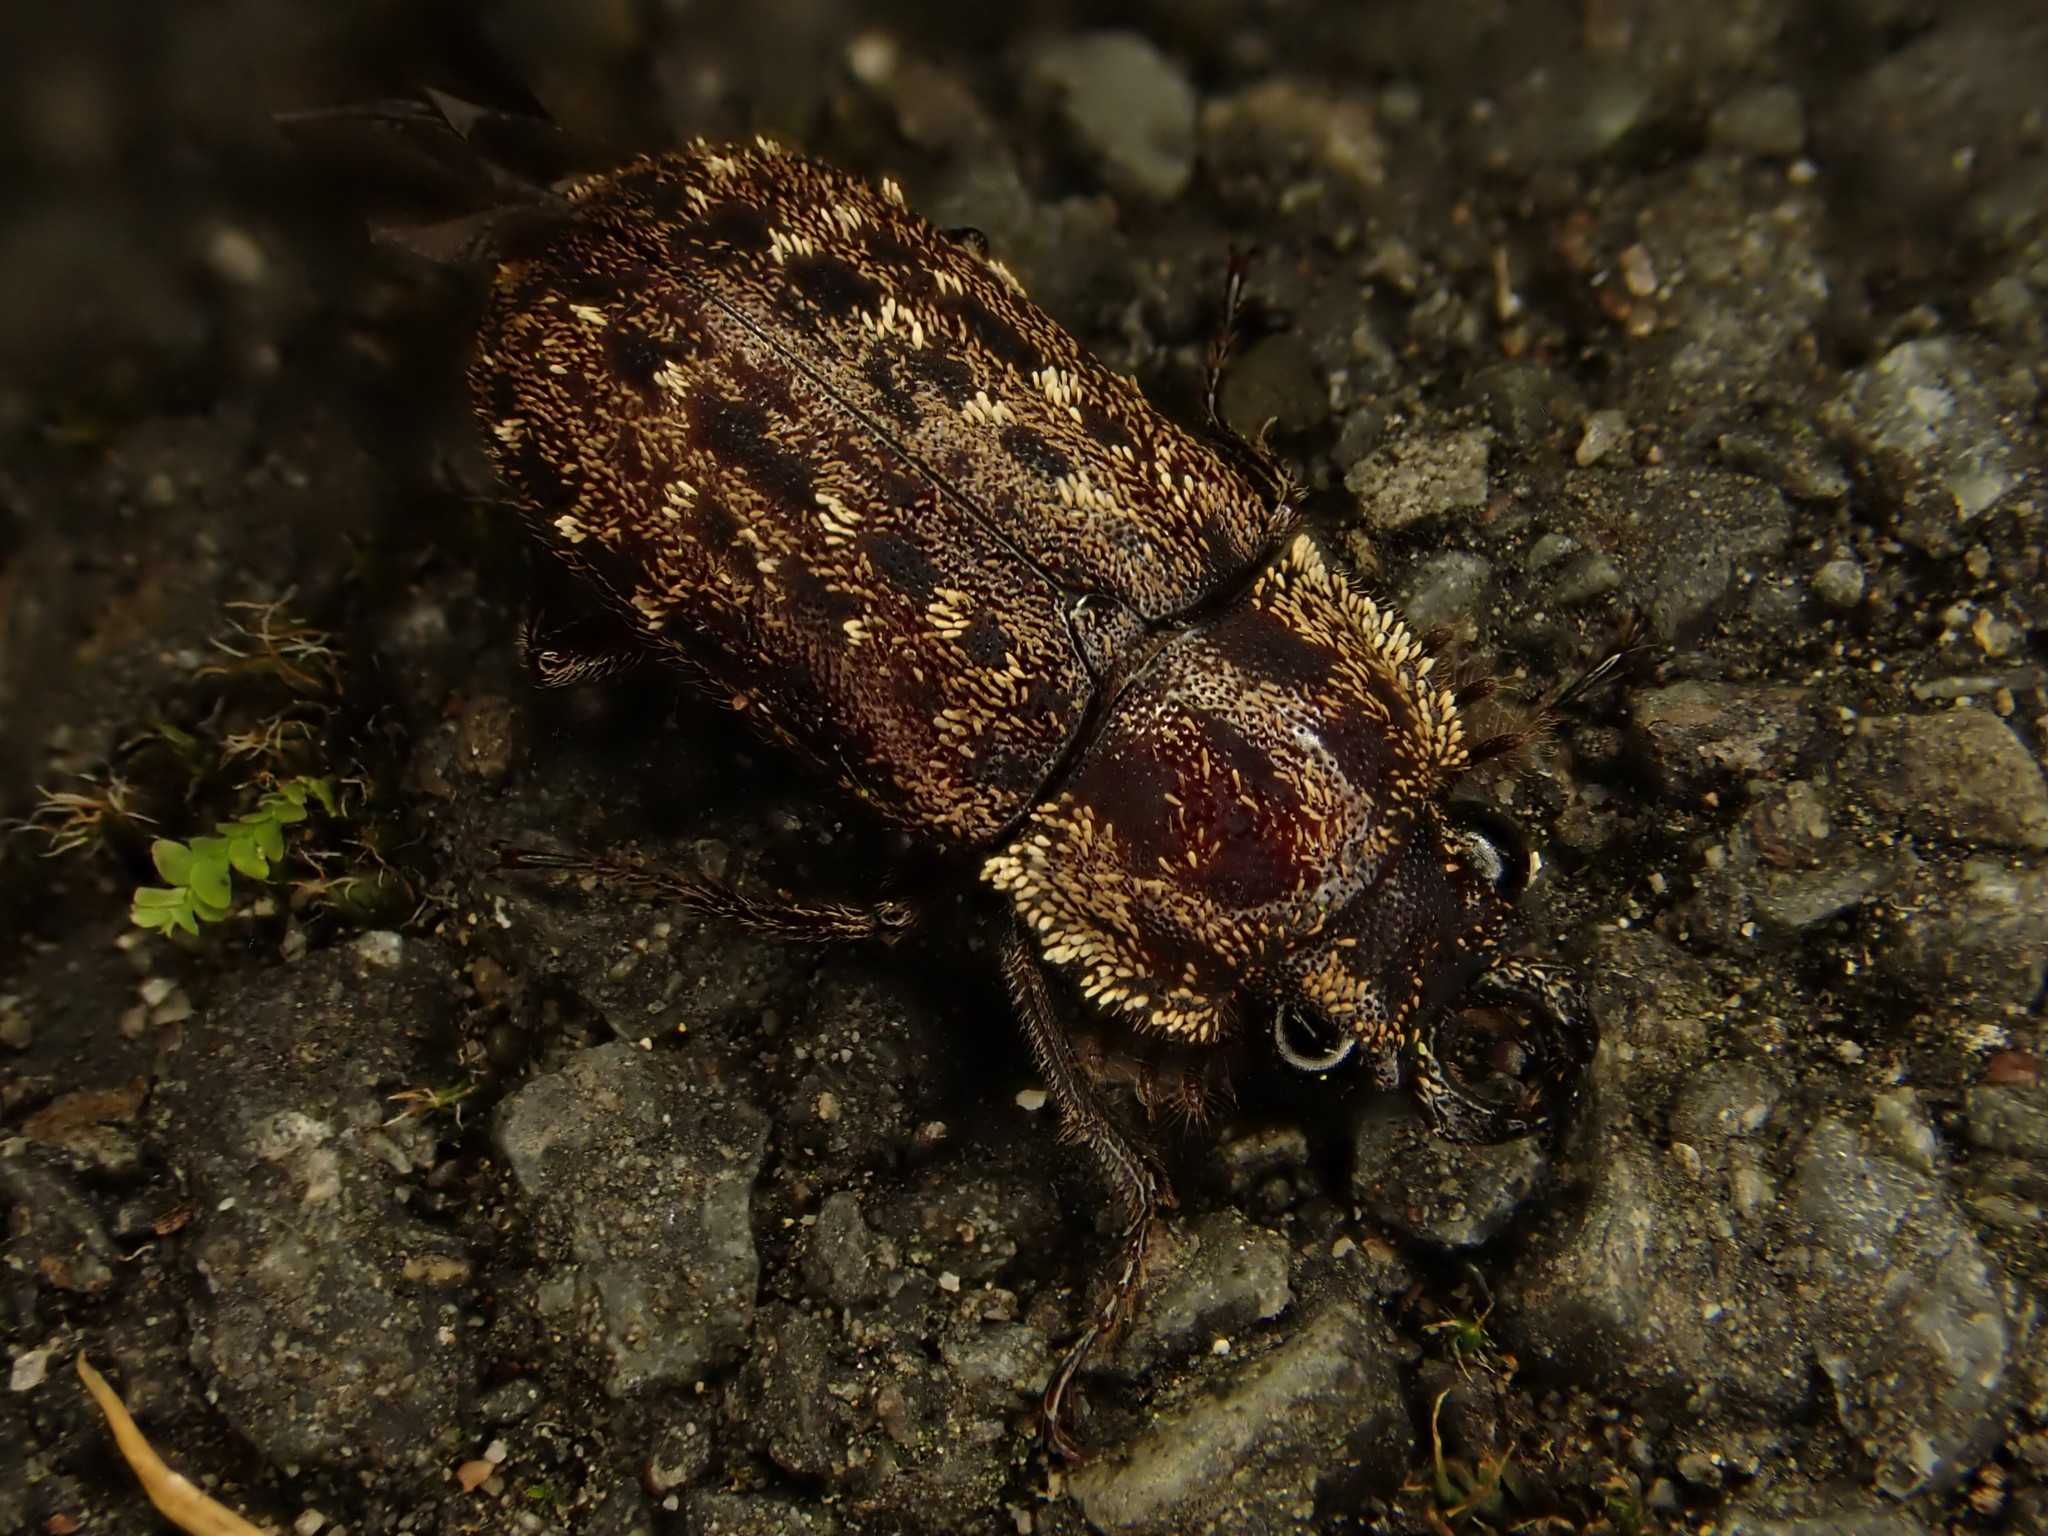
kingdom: Animalia
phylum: Arthropoda
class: Insecta
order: Coleoptera
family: Lucanidae
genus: Mitophyllus
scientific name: Mitophyllus arcuatus
